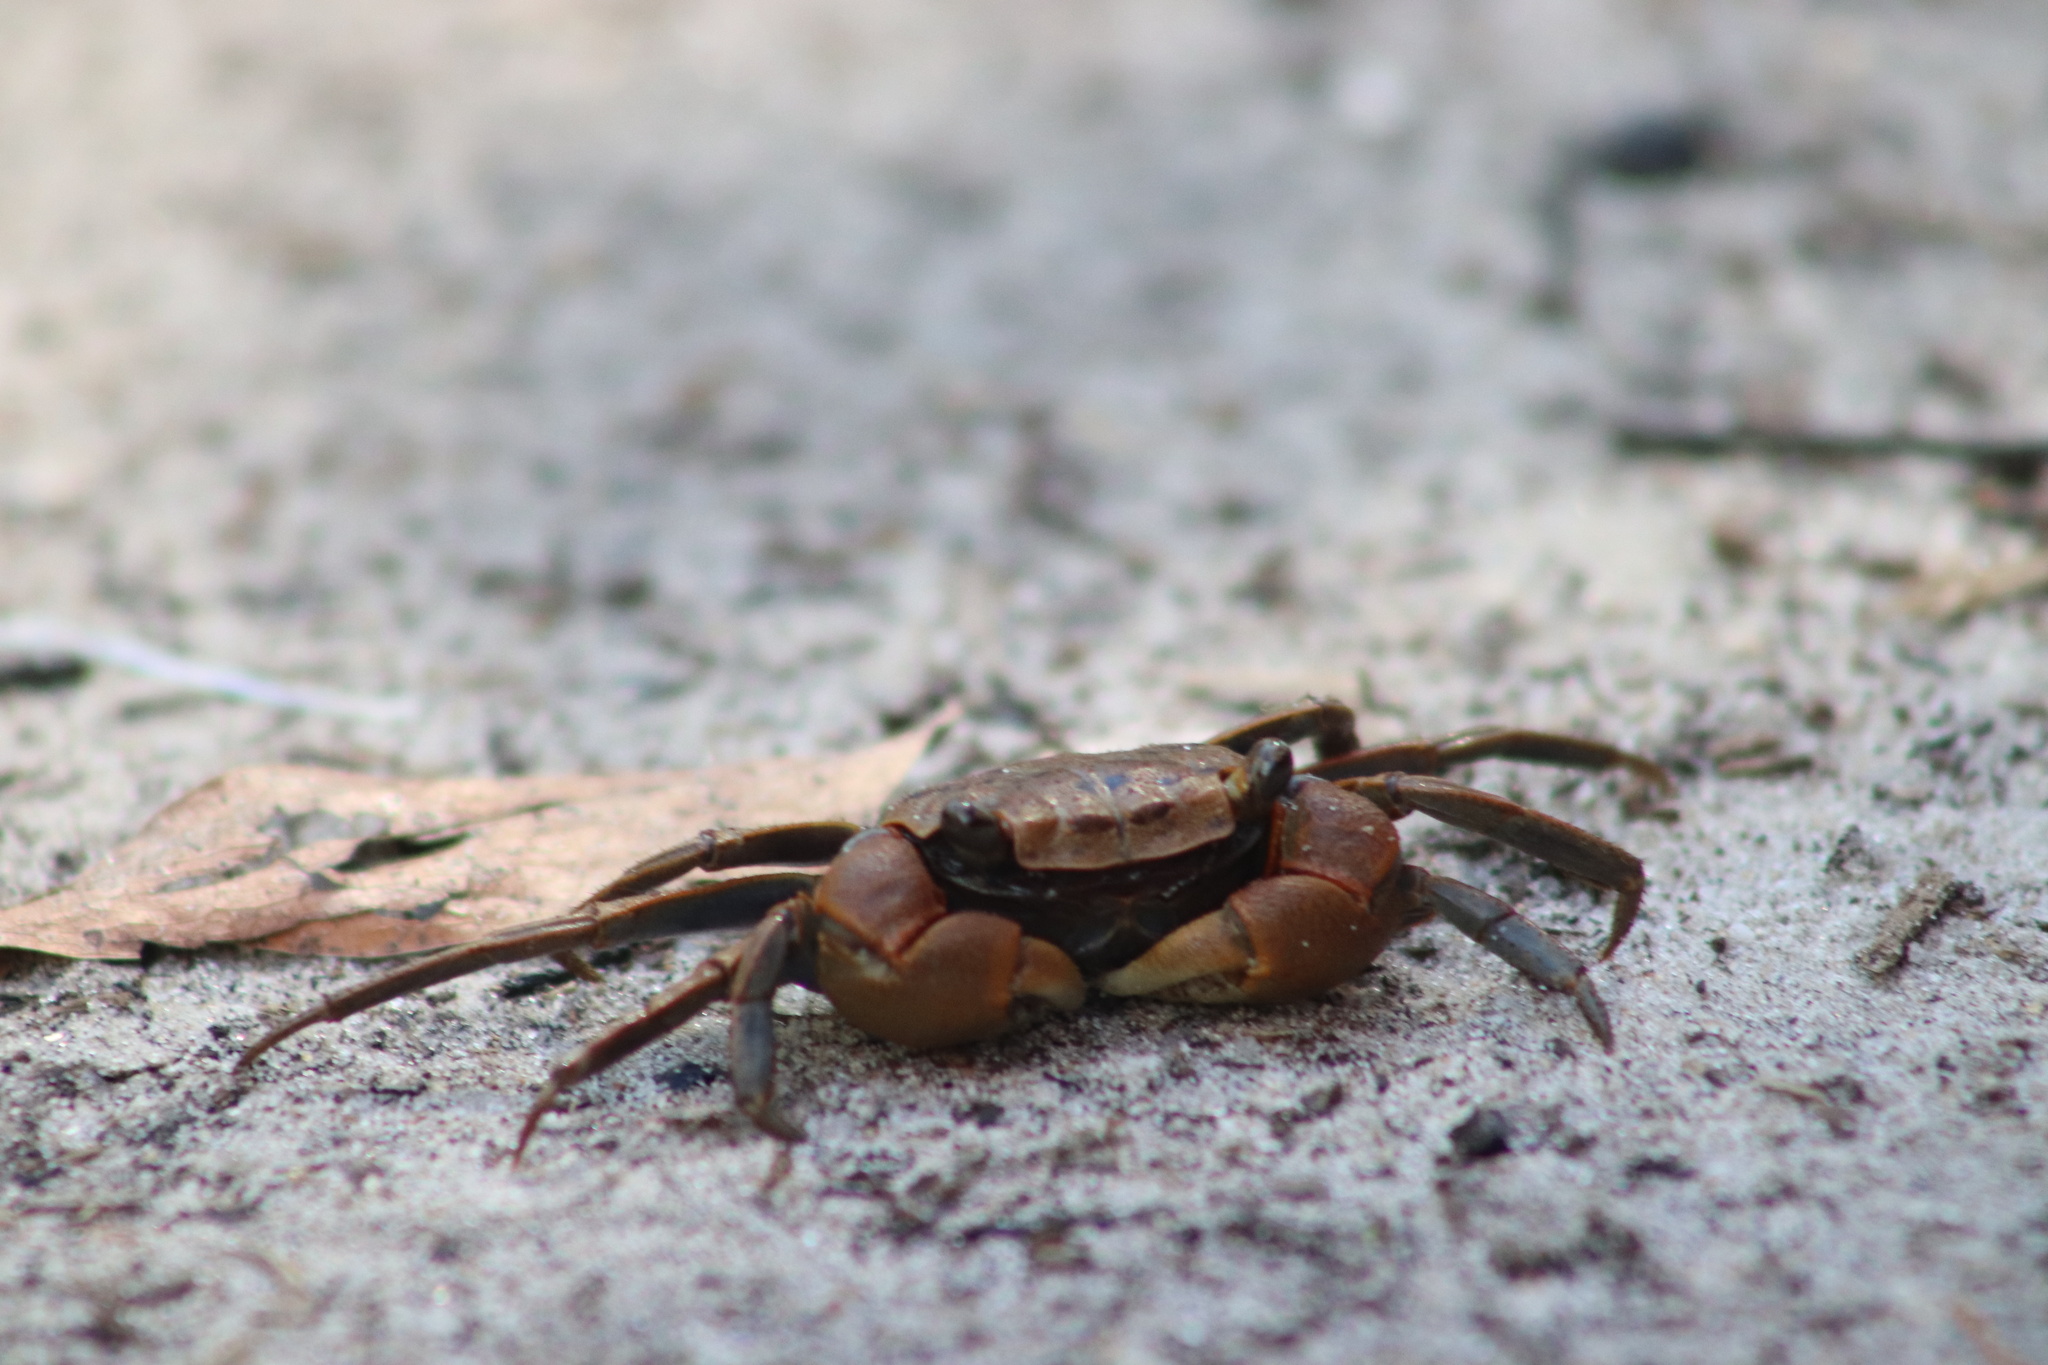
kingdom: Animalia
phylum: Arthropoda
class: Malacostraca
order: Decapoda
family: Sesarmidae
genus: Armases
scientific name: Armases cinereum
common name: Squareback marsh crab
